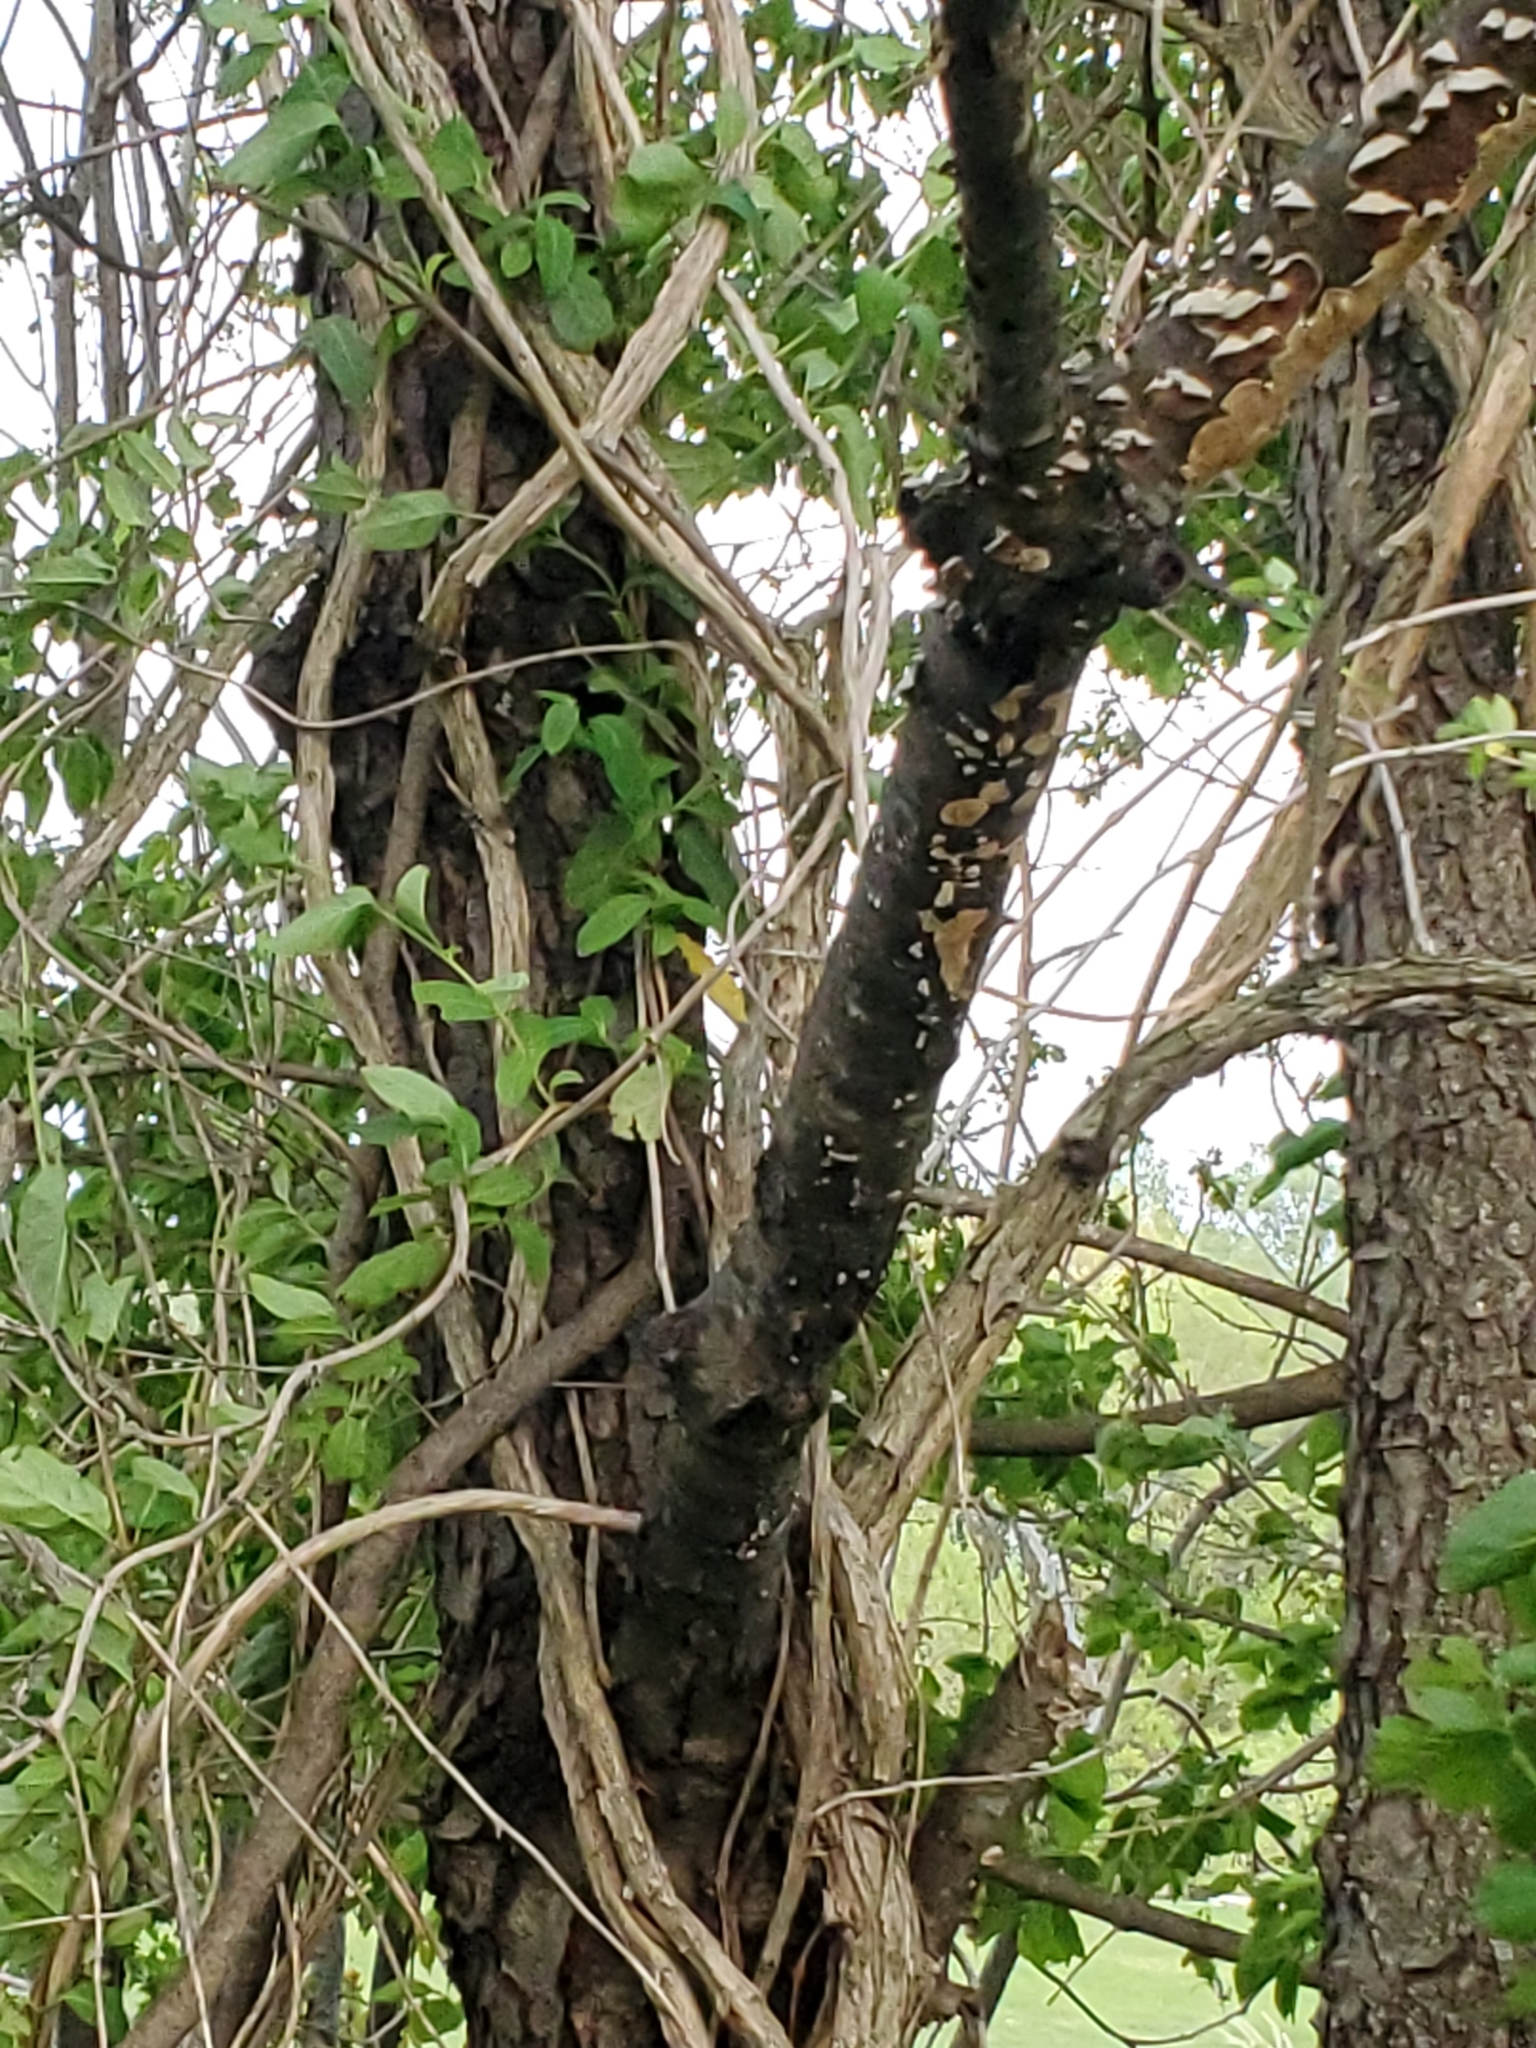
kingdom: Plantae
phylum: Tracheophyta
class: Magnoliopsida
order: Rosales
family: Rosaceae
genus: Prunus
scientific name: Prunus serotina
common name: Black cherry
